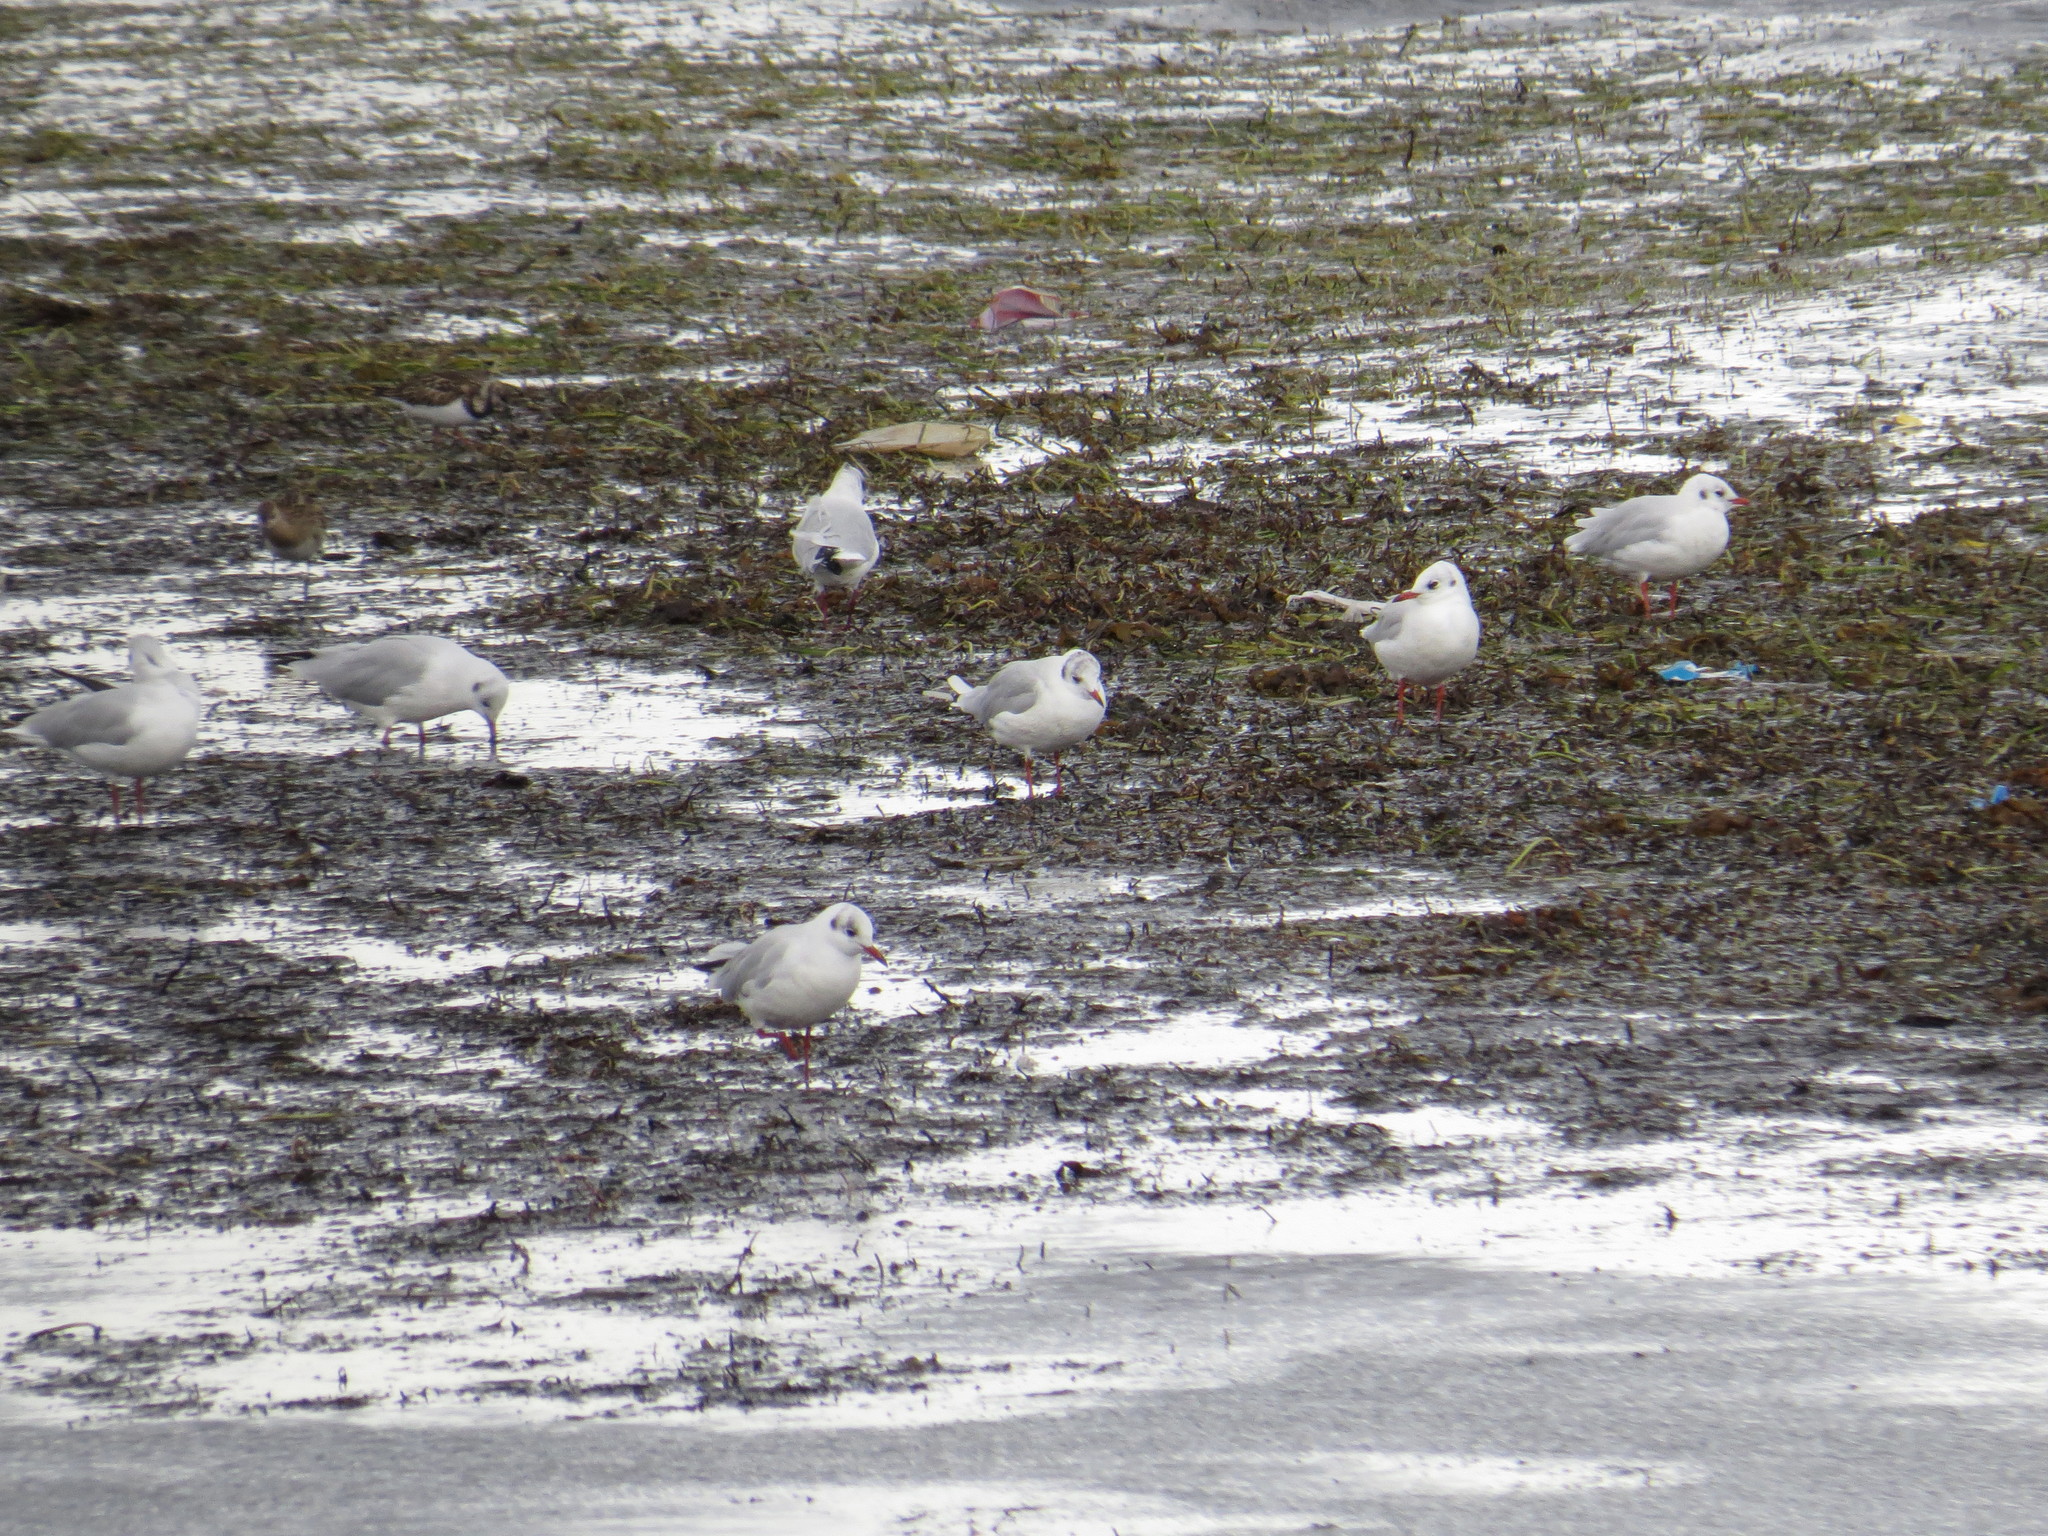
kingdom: Animalia
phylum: Chordata
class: Aves
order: Charadriiformes
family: Laridae
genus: Chroicocephalus
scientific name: Chroicocephalus ridibundus
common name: Black-headed gull
